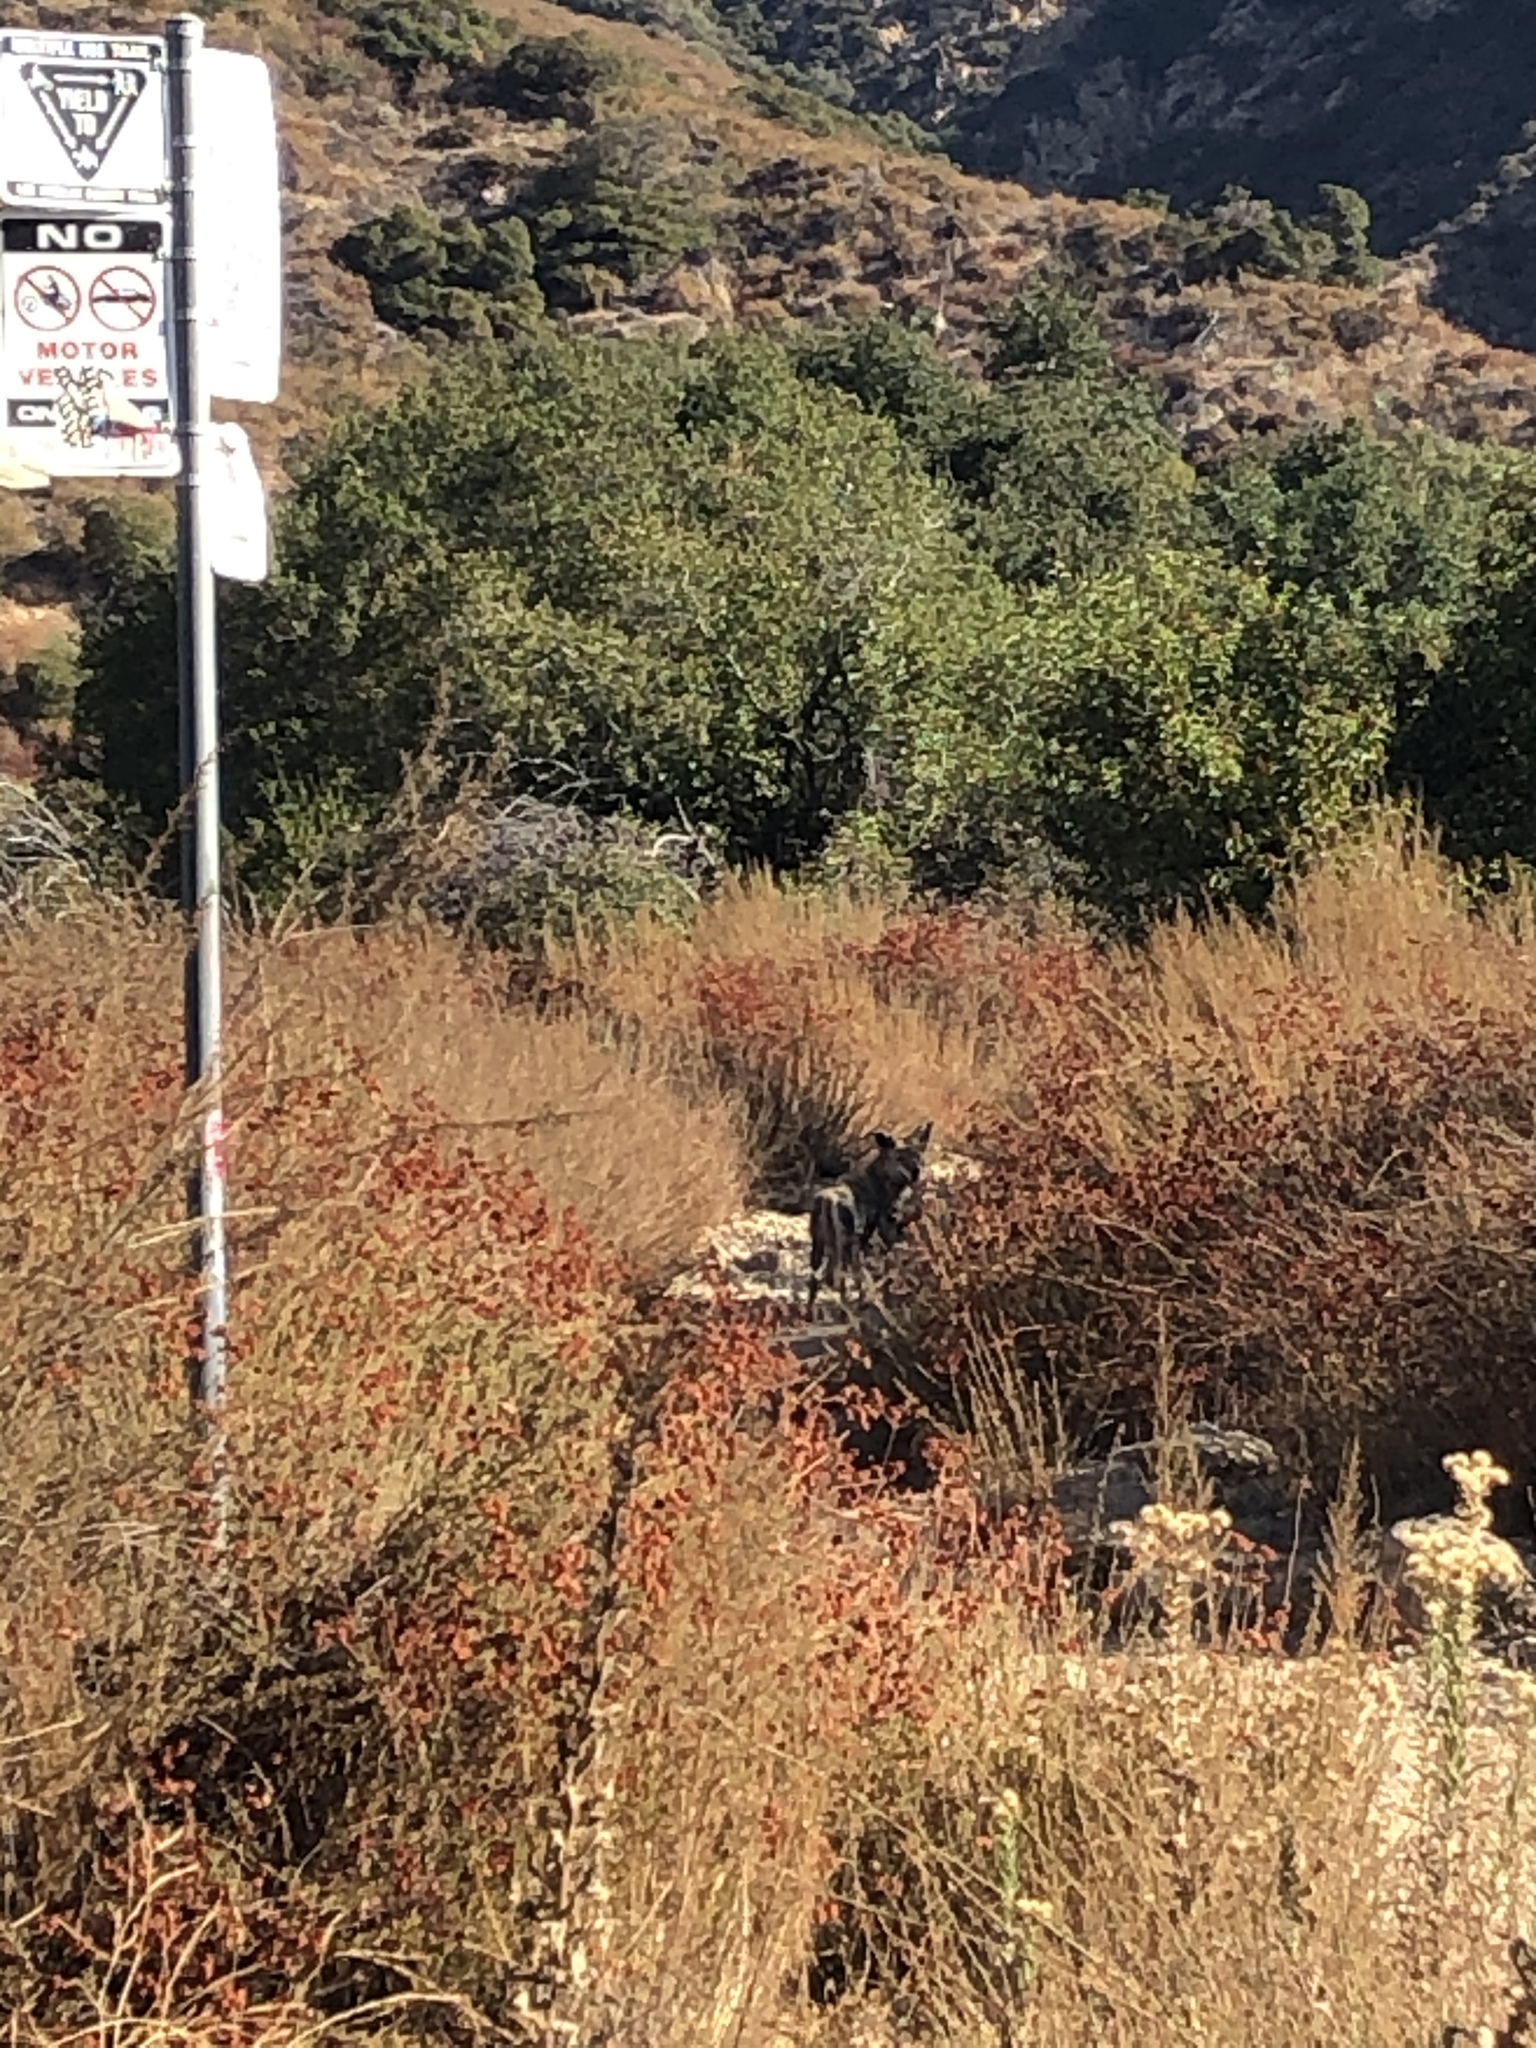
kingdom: Animalia
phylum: Chordata
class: Mammalia
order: Carnivora
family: Canidae
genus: Canis
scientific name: Canis latrans
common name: Coyote
